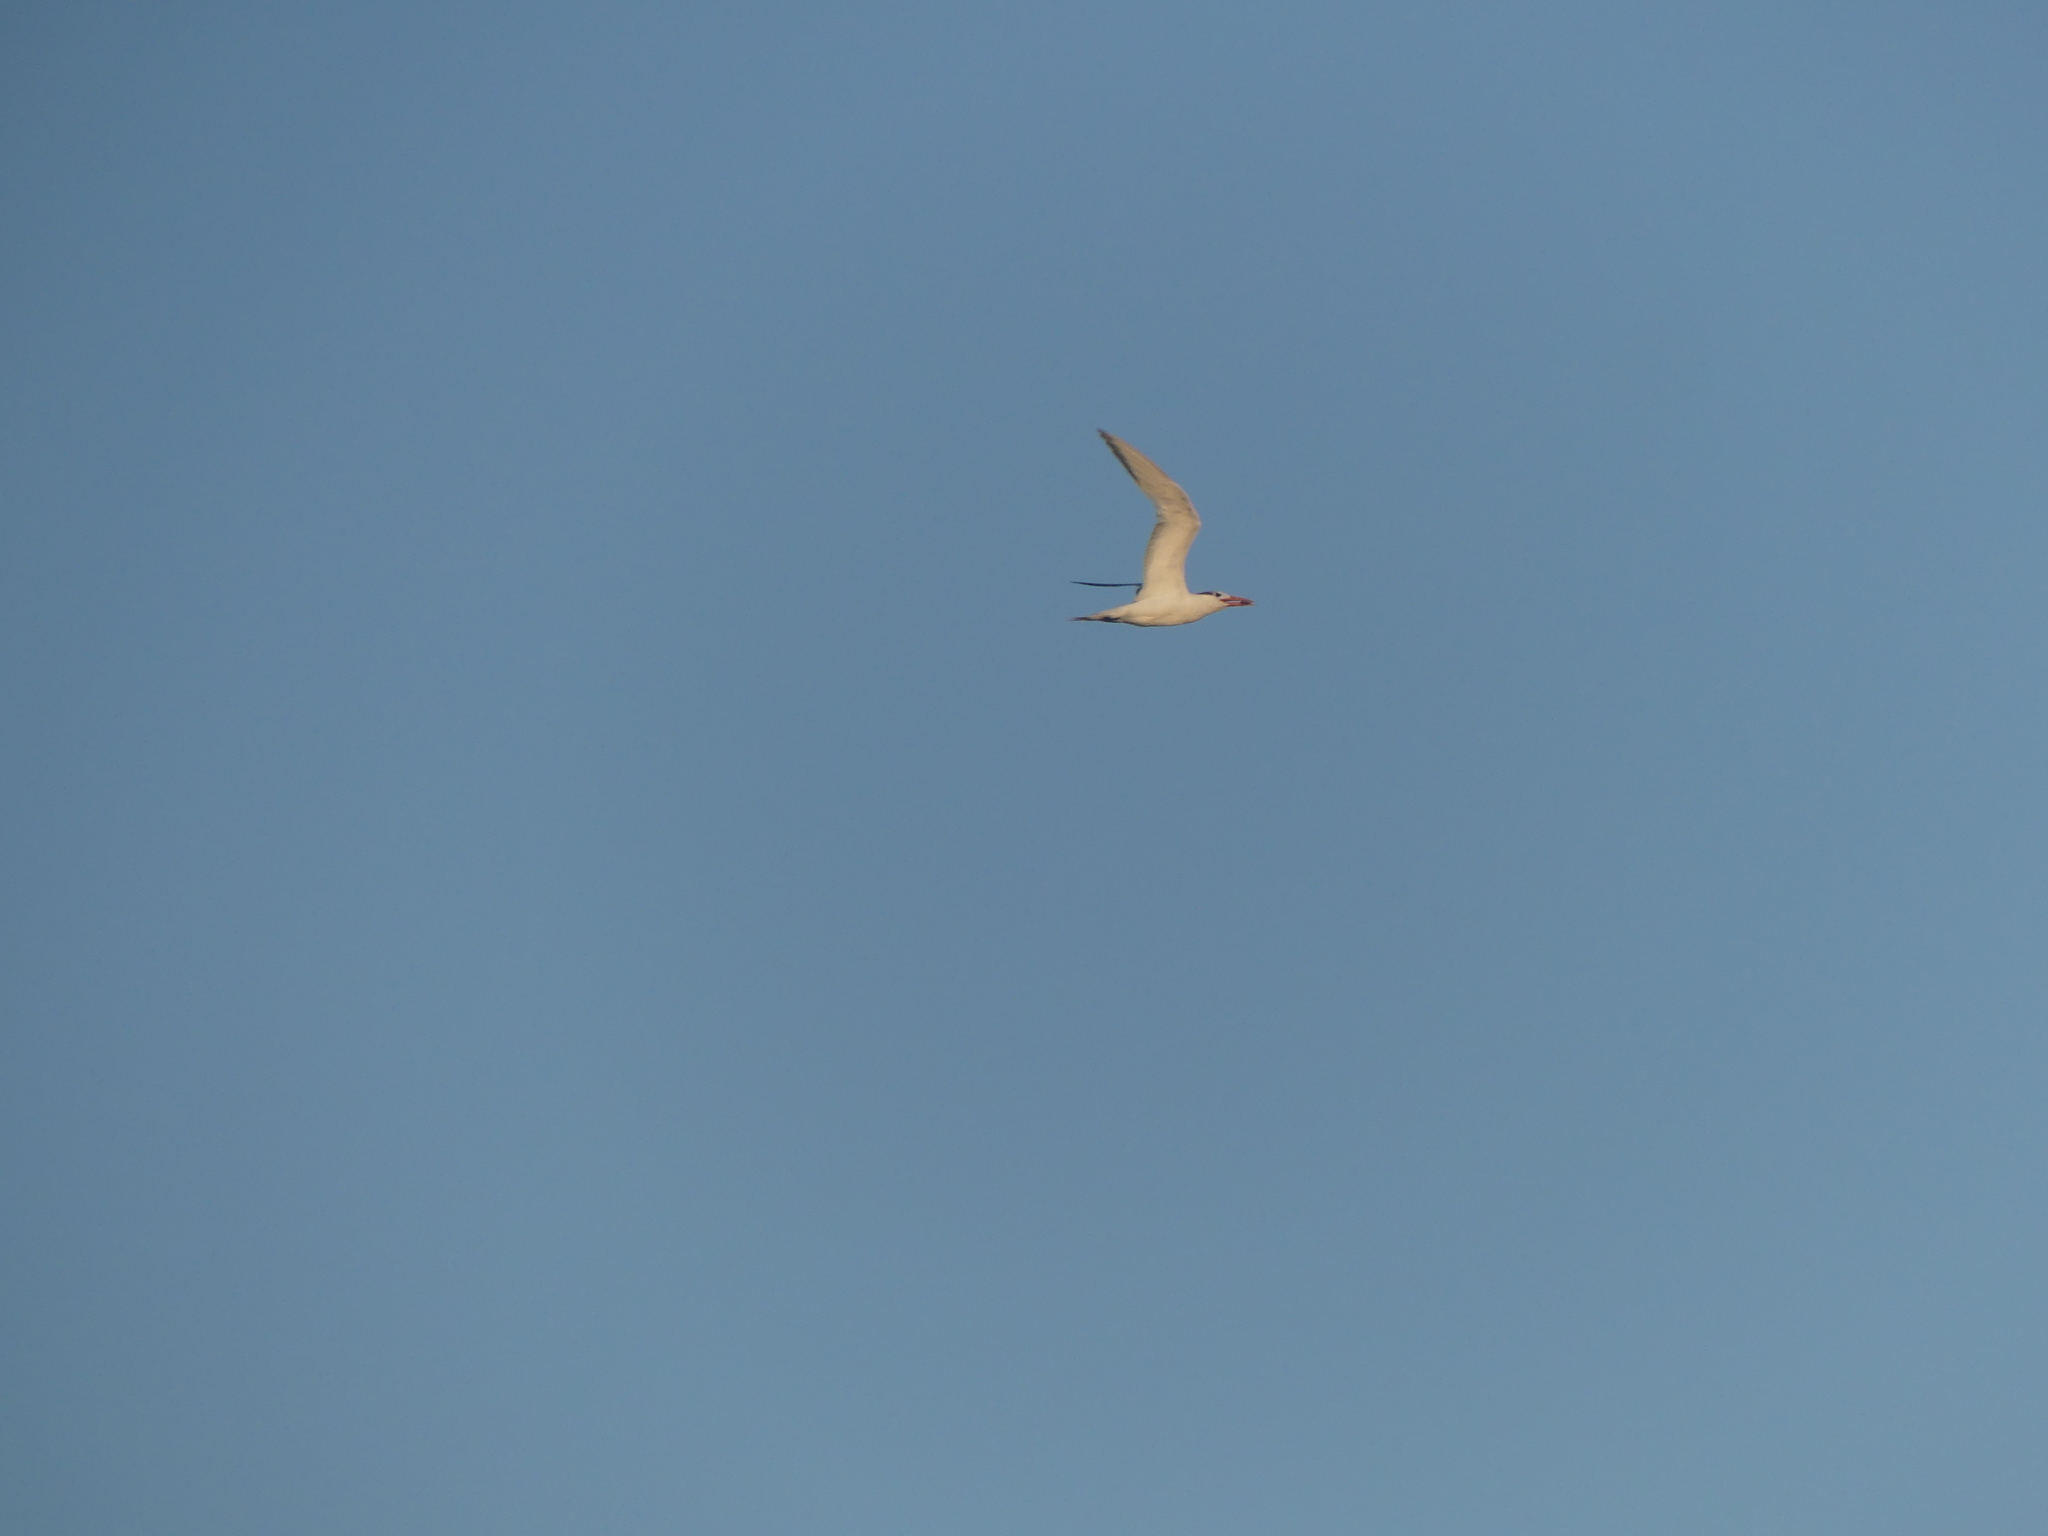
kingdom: Animalia
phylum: Chordata
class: Aves
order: Charadriiformes
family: Laridae
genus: Thalasseus
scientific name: Thalasseus maximus
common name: Royal tern
